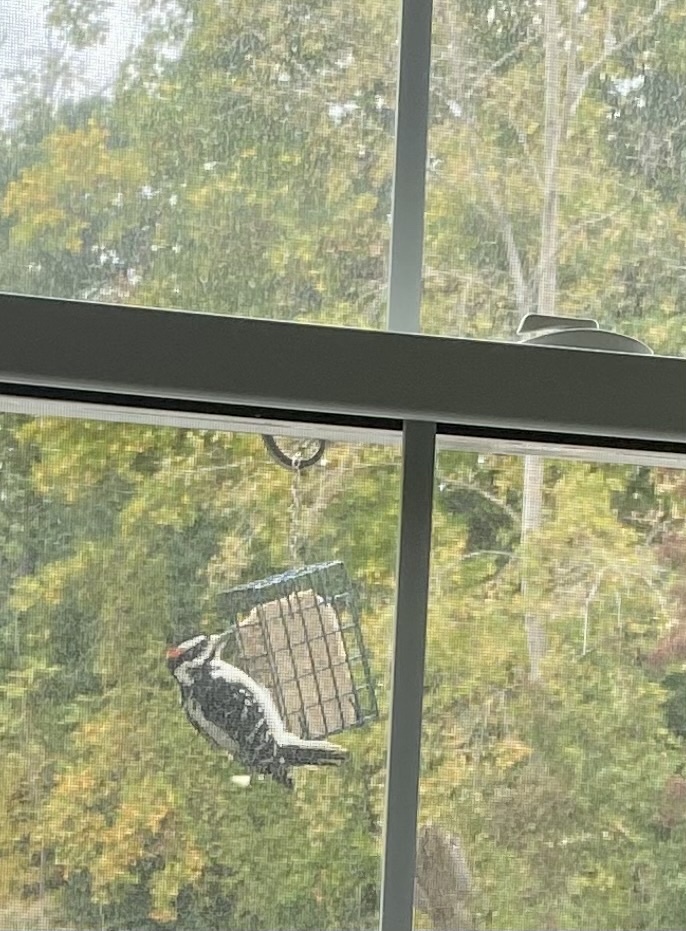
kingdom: Animalia
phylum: Chordata
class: Aves
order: Piciformes
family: Picidae
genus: Leuconotopicus
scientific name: Leuconotopicus villosus
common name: Hairy woodpecker
